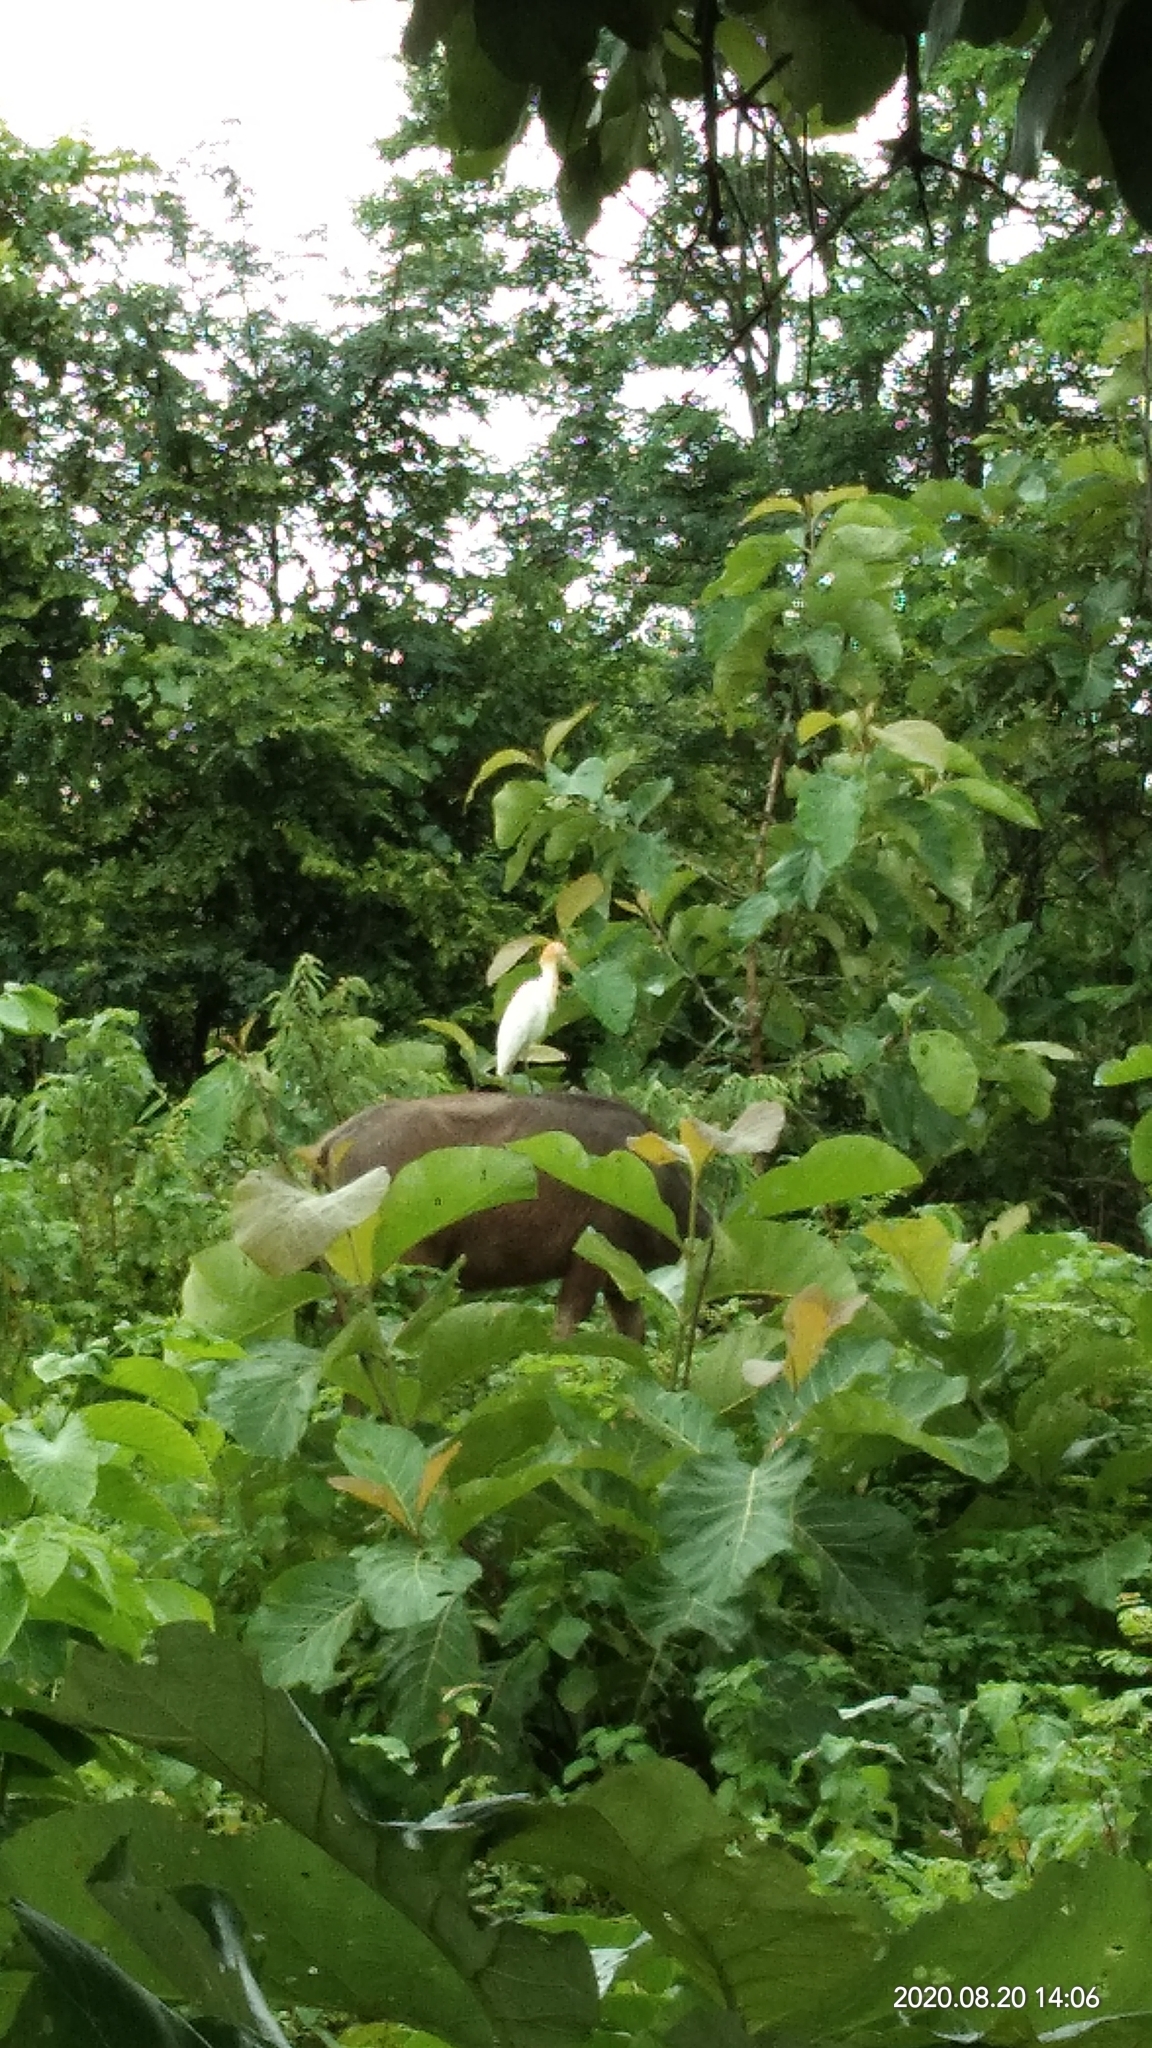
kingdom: Animalia
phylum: Chordata
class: Aves
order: Pelecaniformes
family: Ardeidae
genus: Bubulcus
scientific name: Bubulcus coromandus
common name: Eastern cattle egret
